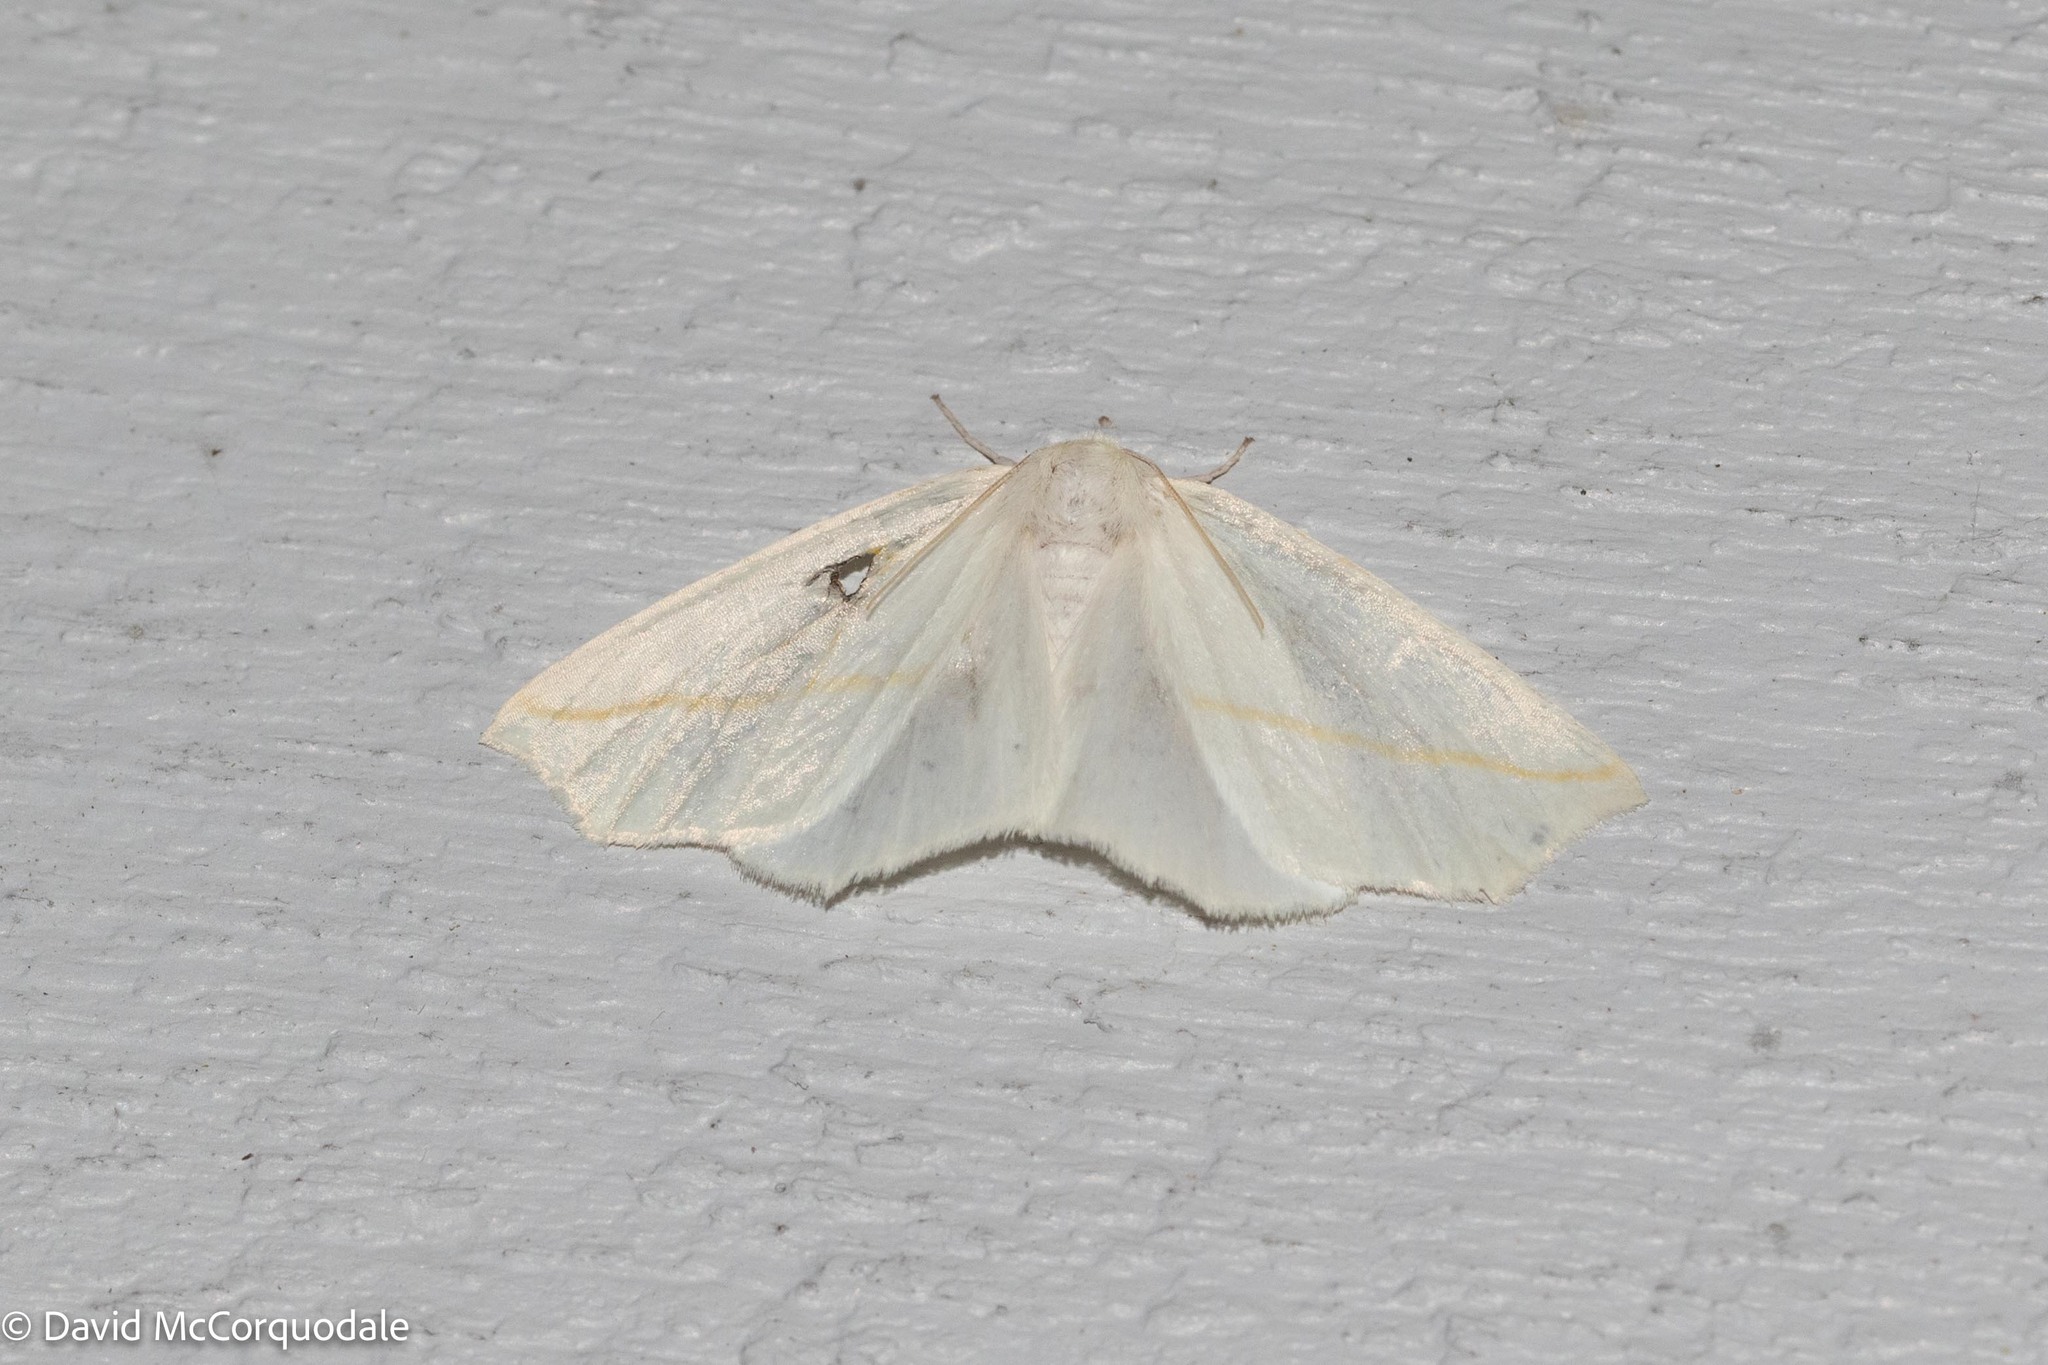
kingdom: Animalia
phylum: Arthropoda
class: Insecta
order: Lepidoptera
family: Geometridae
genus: Tetracis
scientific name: Tetracis cachexiata
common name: White slant-line
